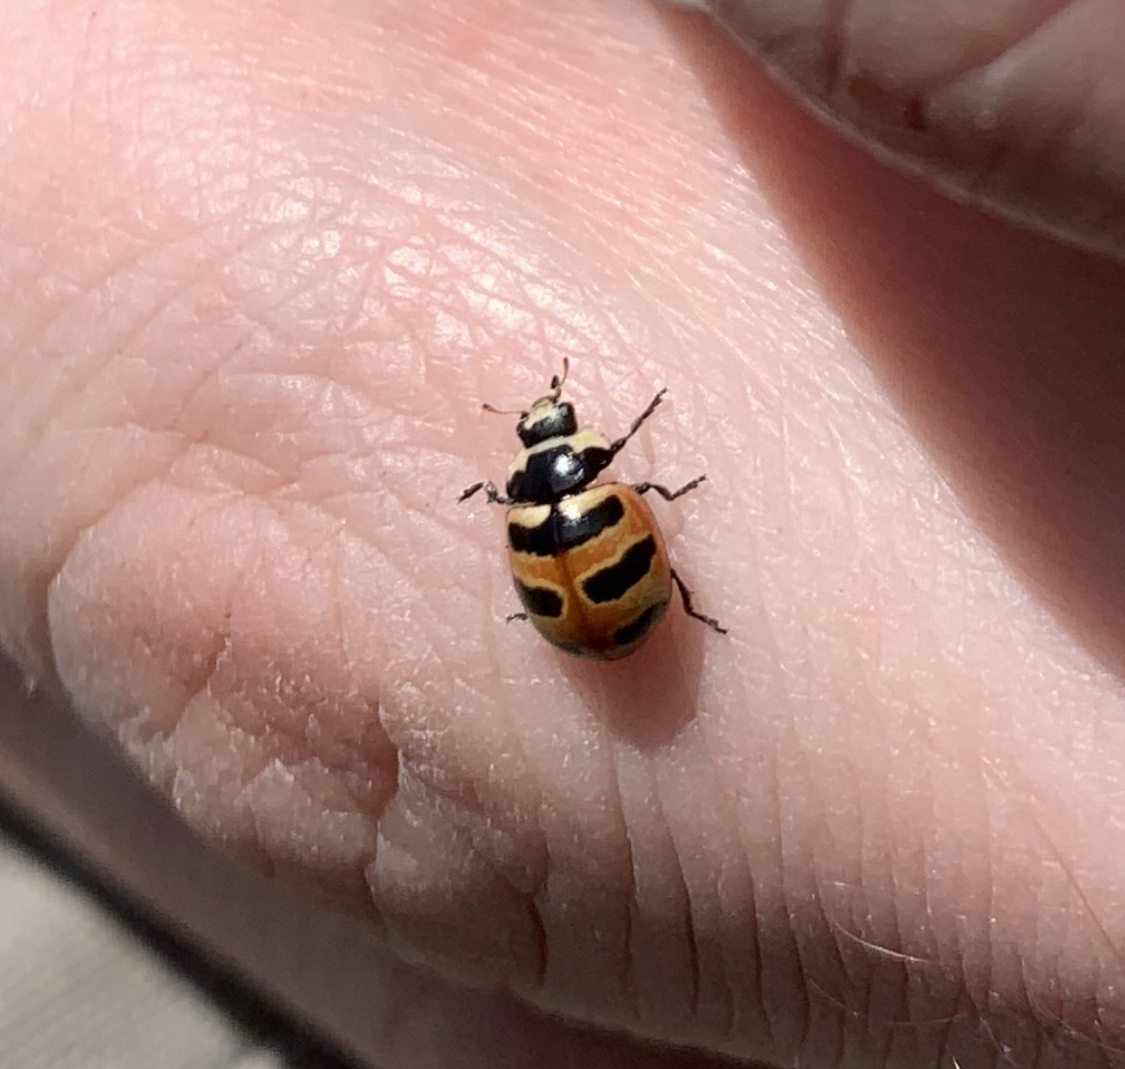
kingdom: Animalia
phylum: Arthropoda
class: Insecta
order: Coleoptera
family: Coccinellidae
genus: Coccinella
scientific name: Coccinella trifasciata
